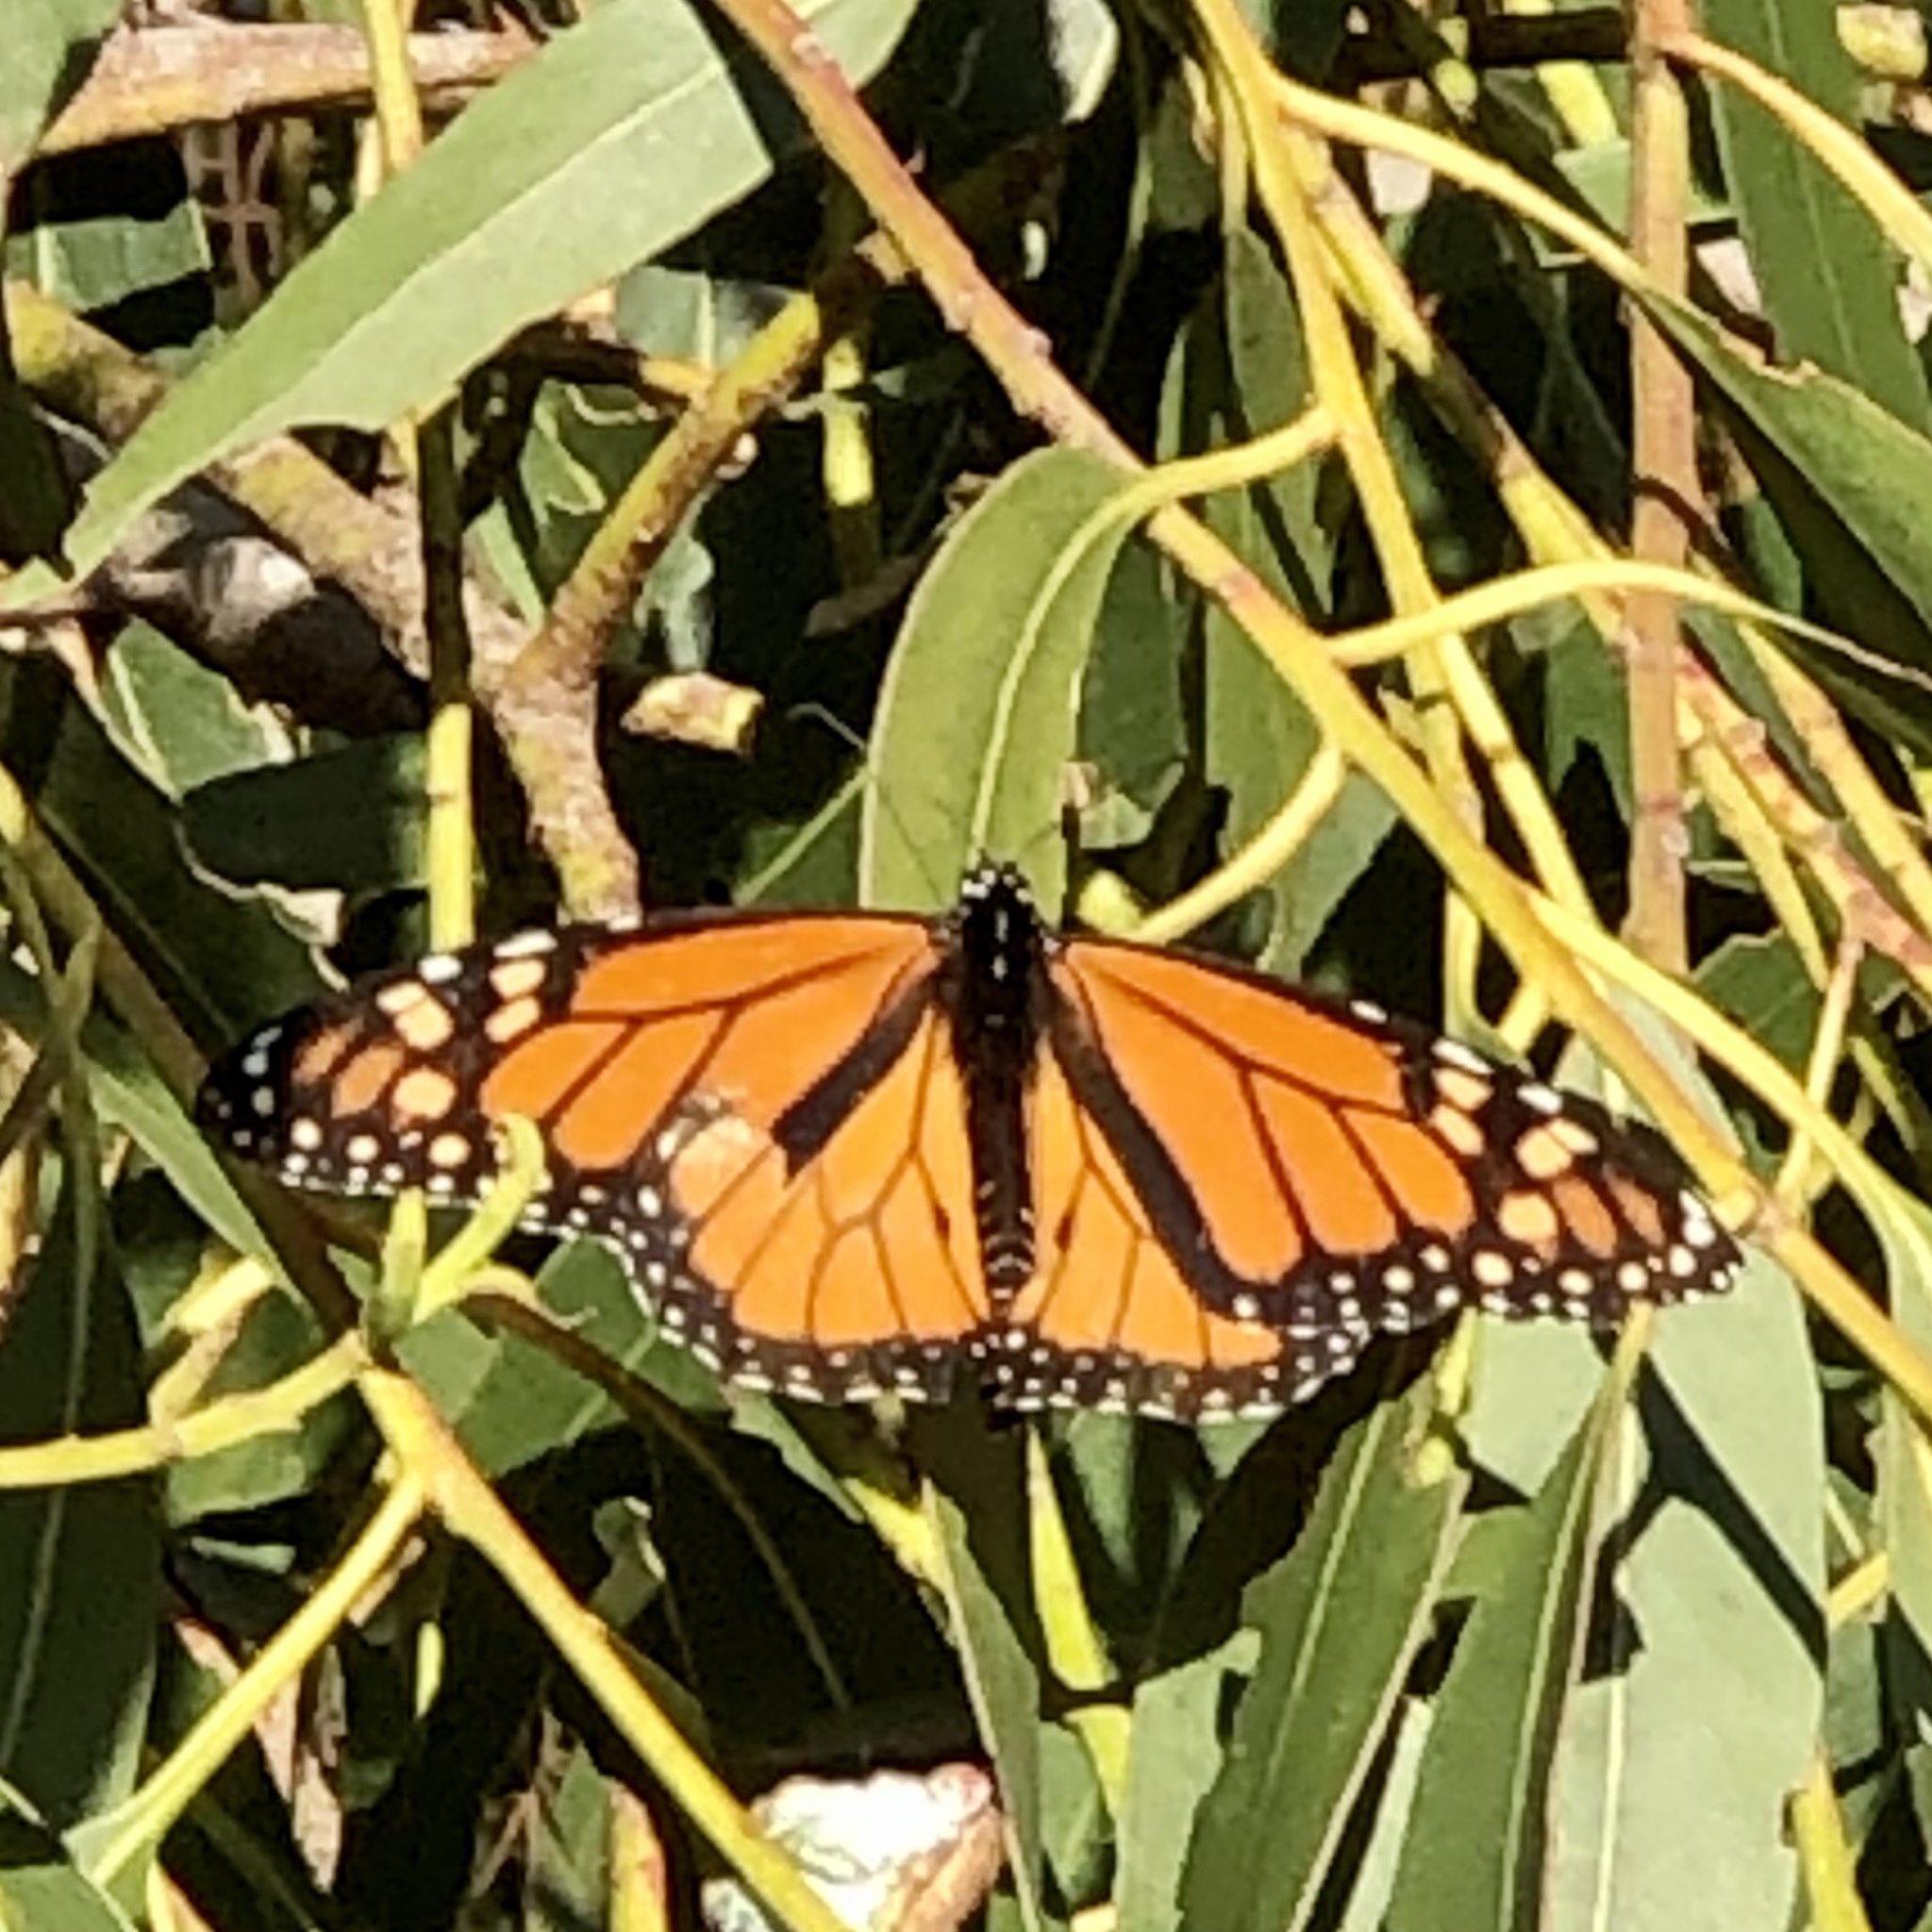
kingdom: Animalia
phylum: Arthropoda
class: Insecta
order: Lepidoptera
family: Nymphalidae
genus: Danaus
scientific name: Danaus plexippus
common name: Monarch
